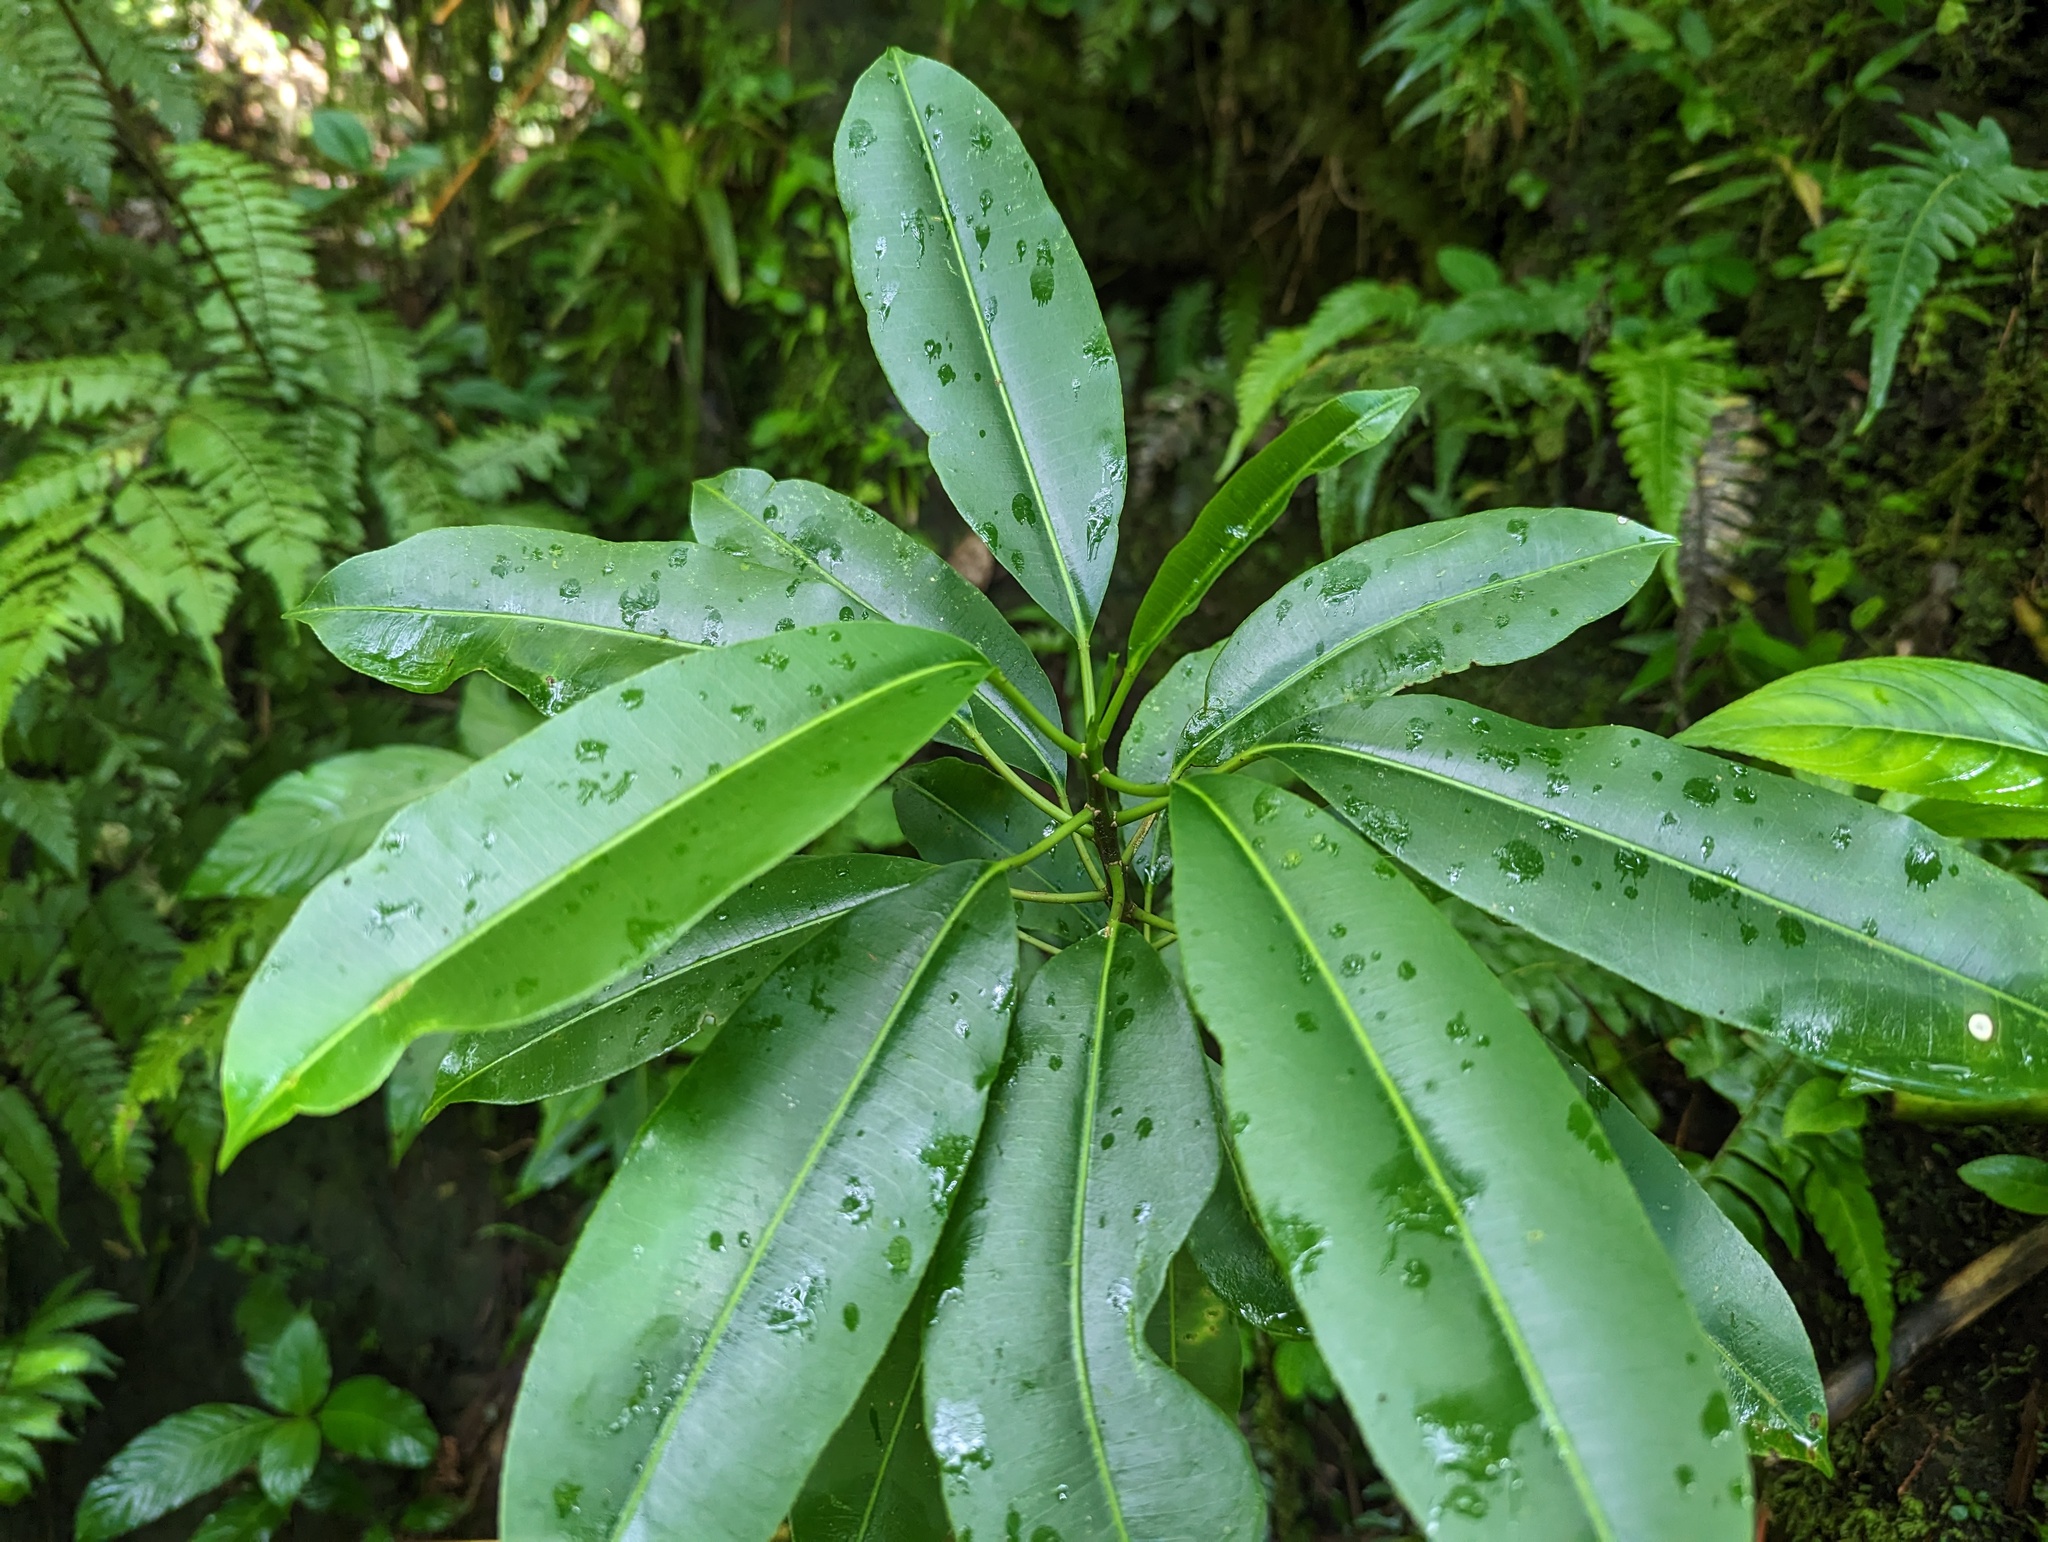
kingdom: Plantae
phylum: Tracheophyta
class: Magnoliopsida
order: Malpighiales
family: Euphorbiaceae
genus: Sapium
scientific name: Sapium laurocerasus
